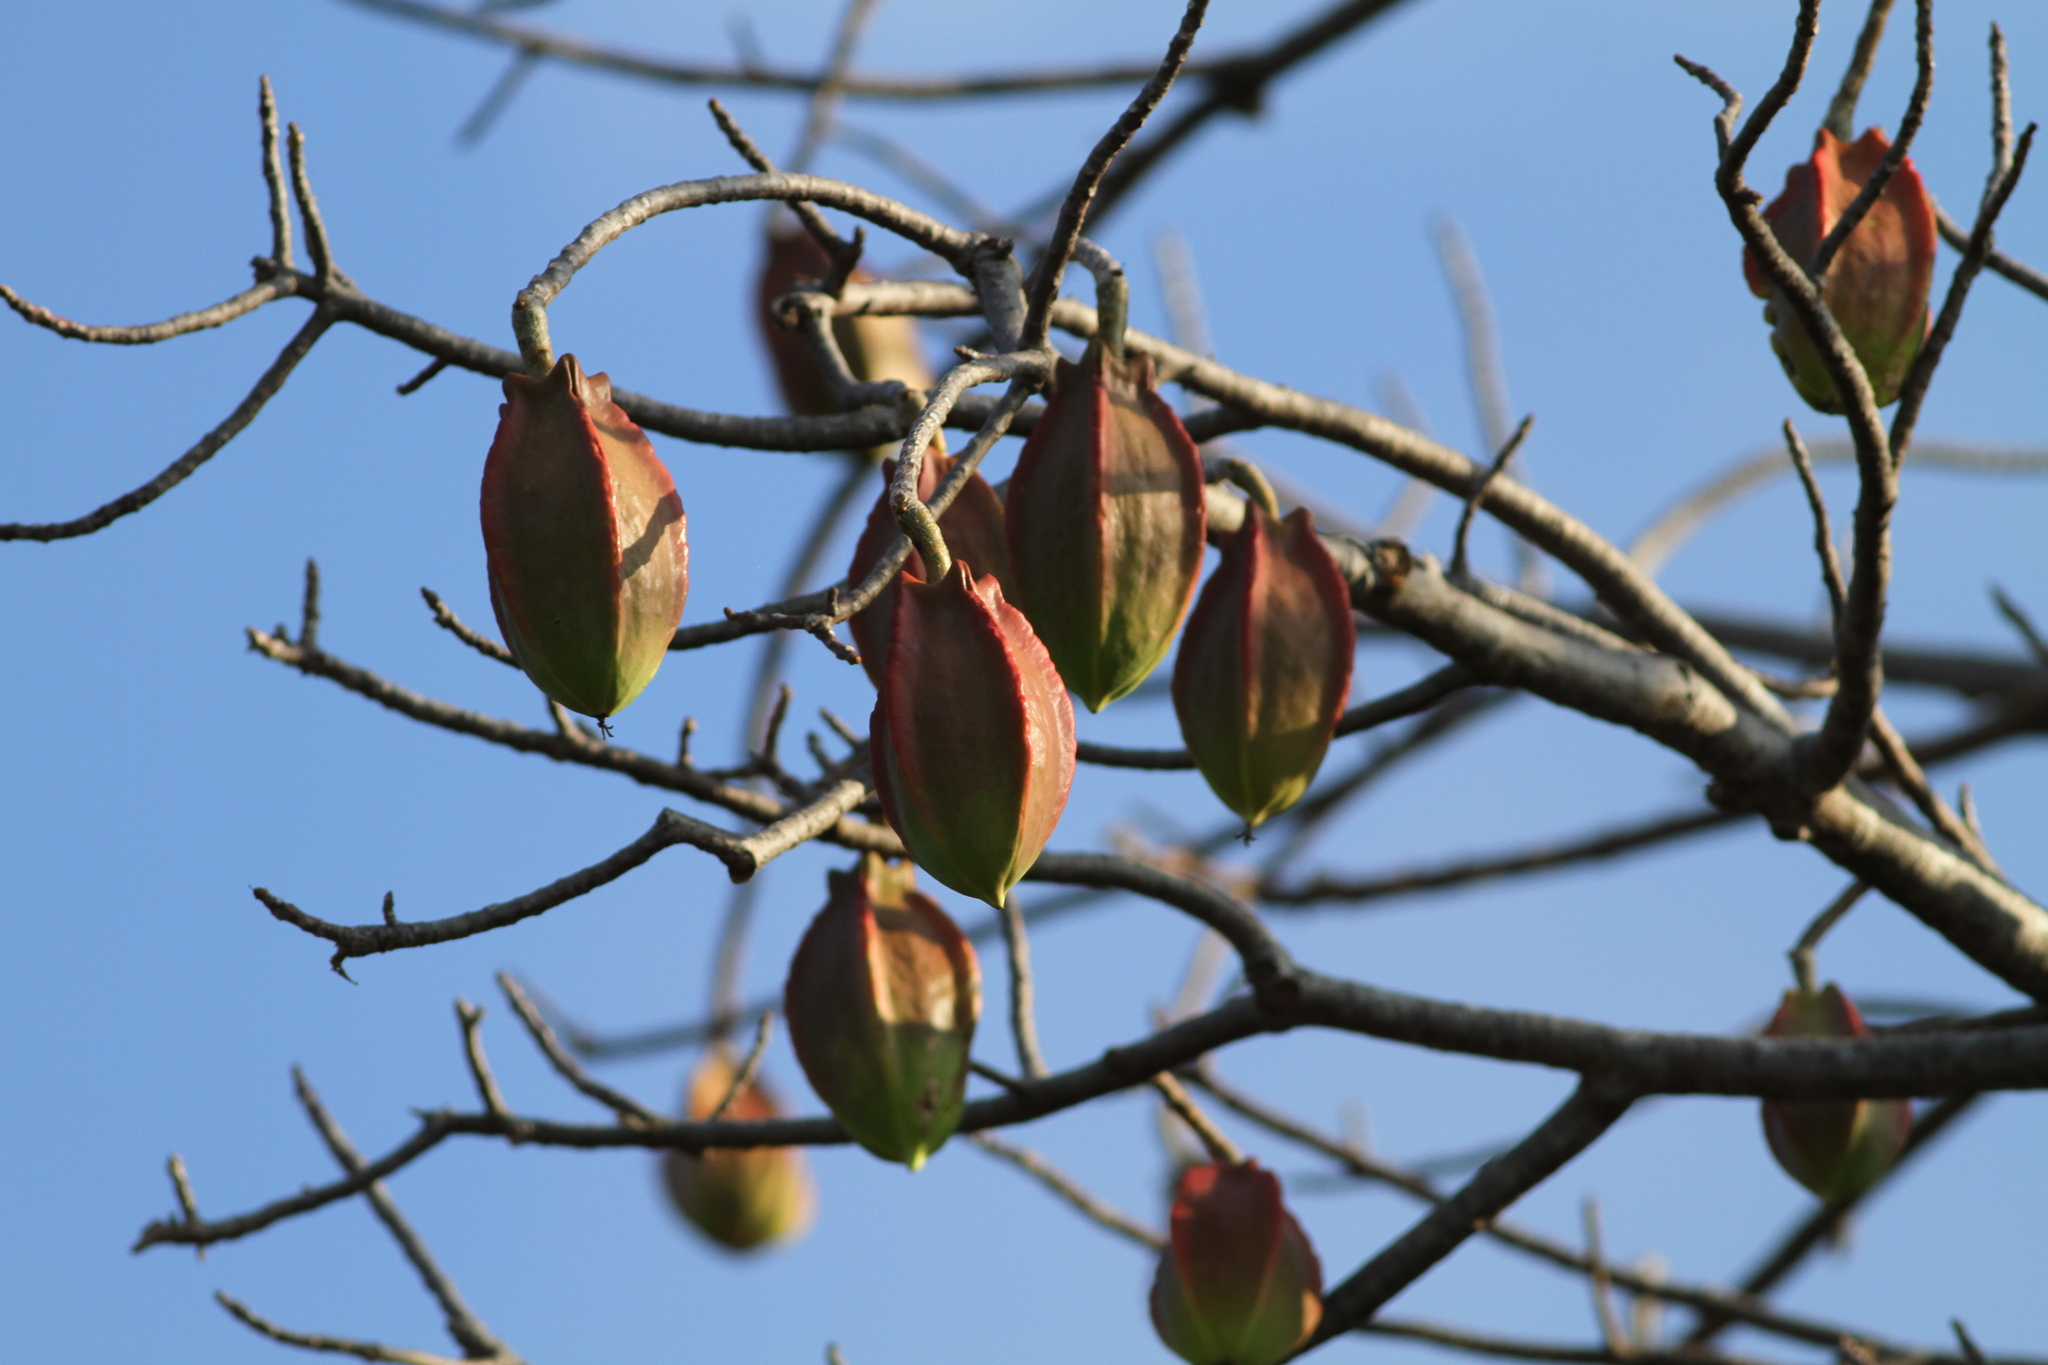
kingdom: Plantae
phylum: Tracheophyta
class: Magnoliopsida
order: Brassicales
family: Caricaceae
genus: Jacaratia
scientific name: Jacaratia mexicana
